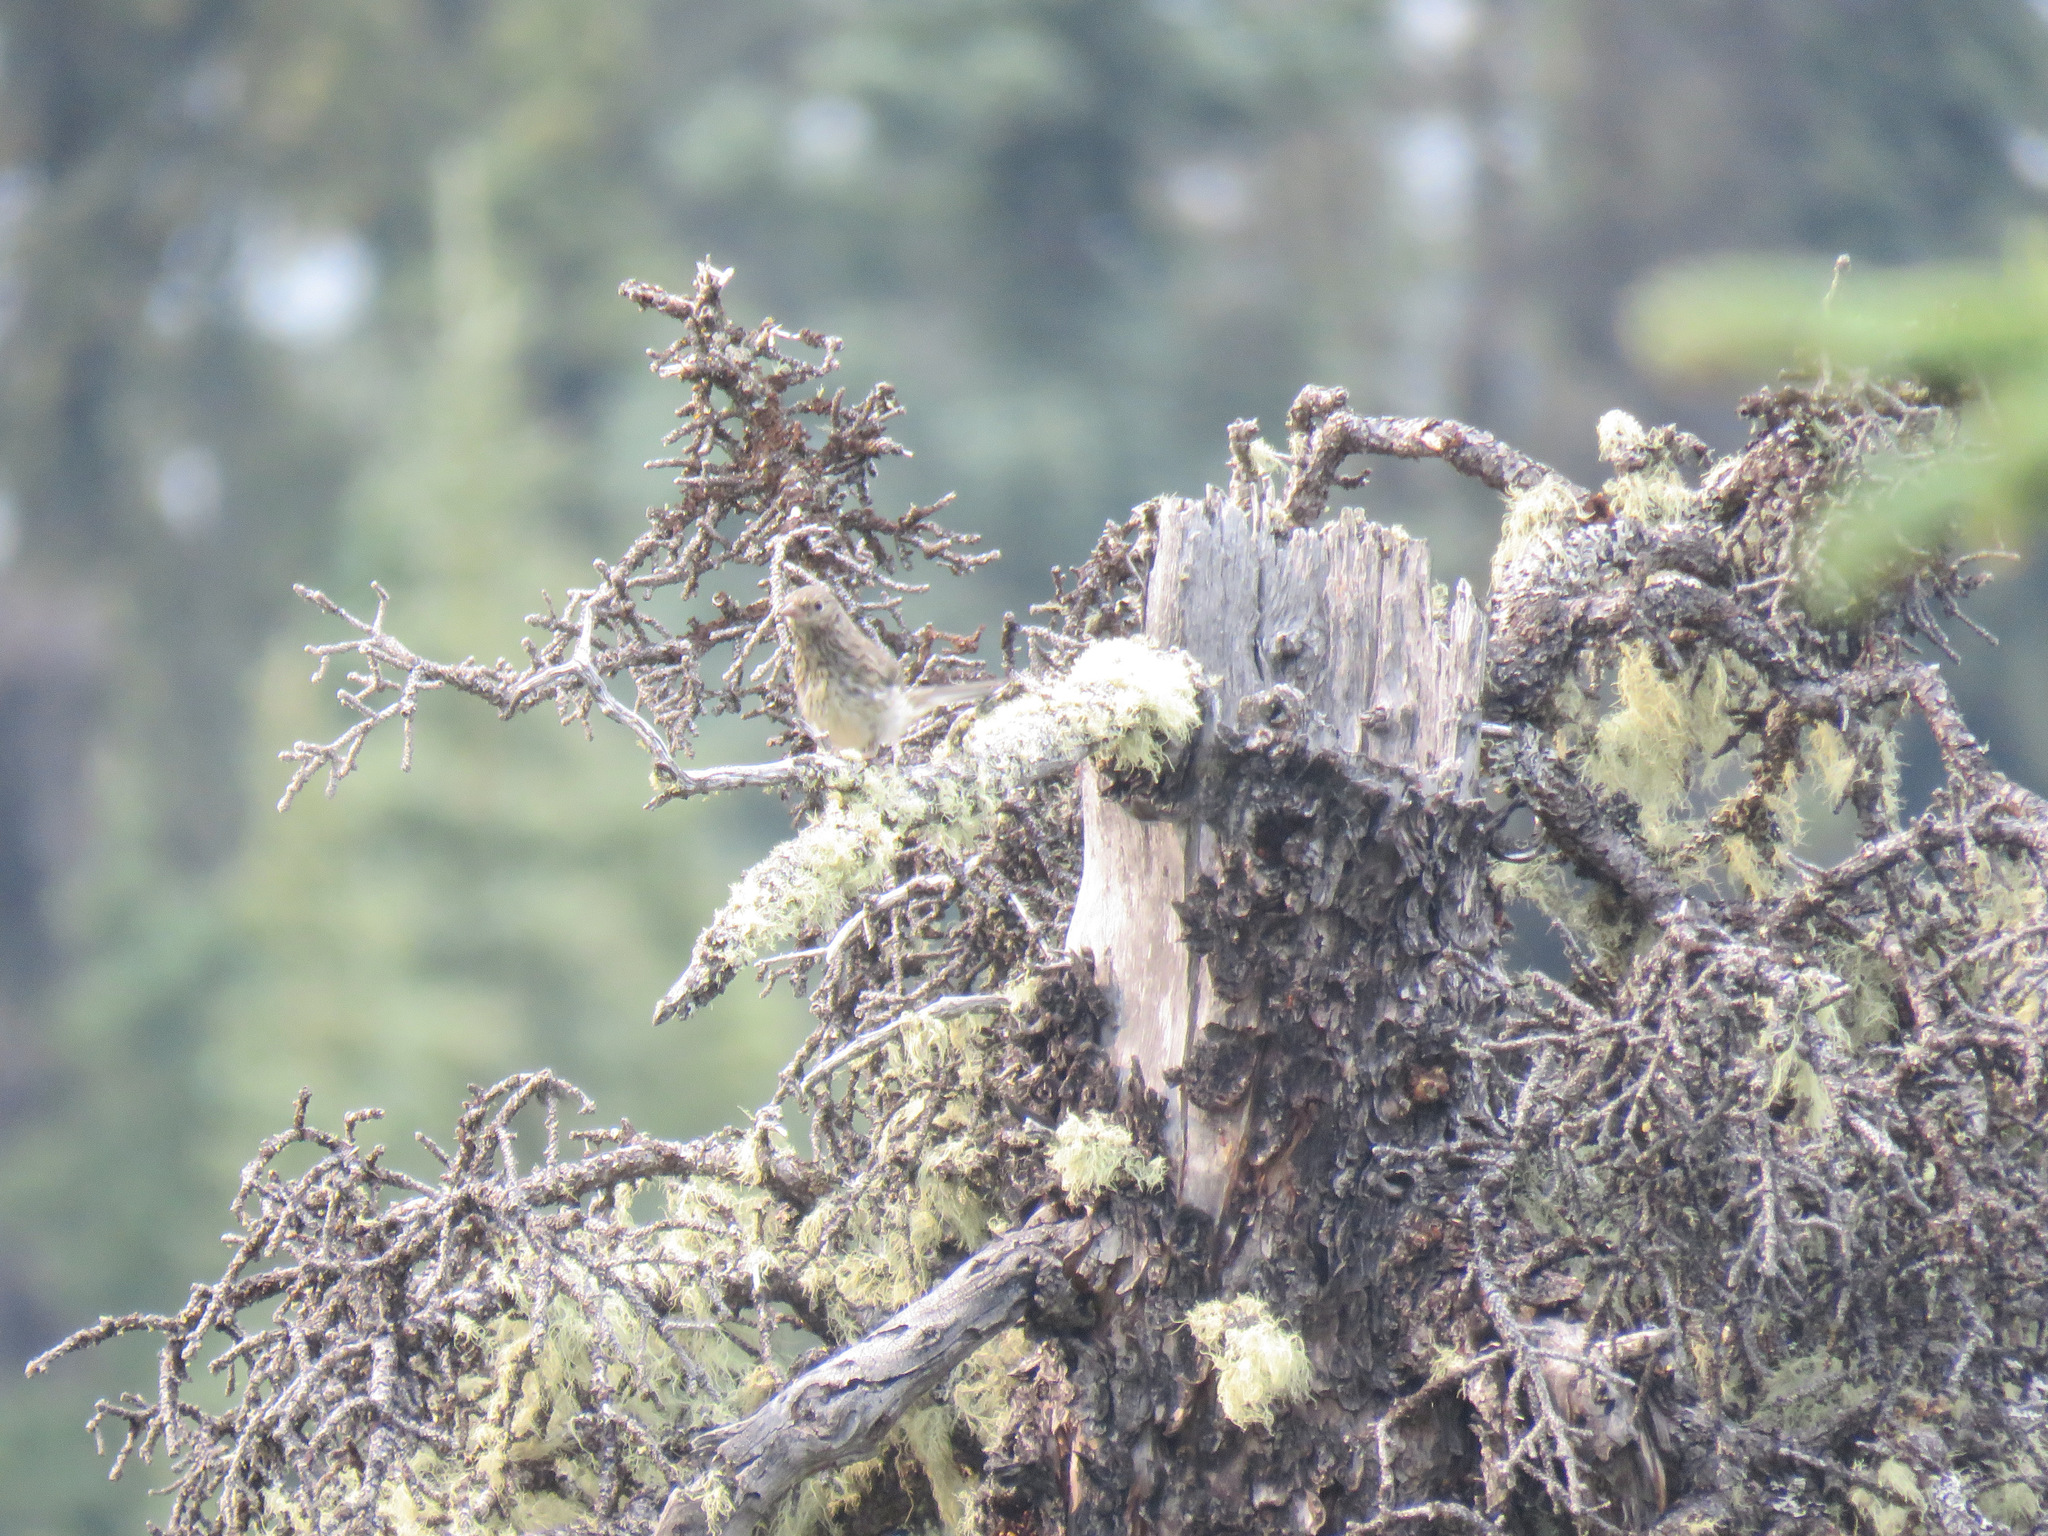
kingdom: Animalia
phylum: Chordata
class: Aves
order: Passeriformes
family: Passerellidae
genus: Junco
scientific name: Junco hyemalis
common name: Dark-eyed junco
